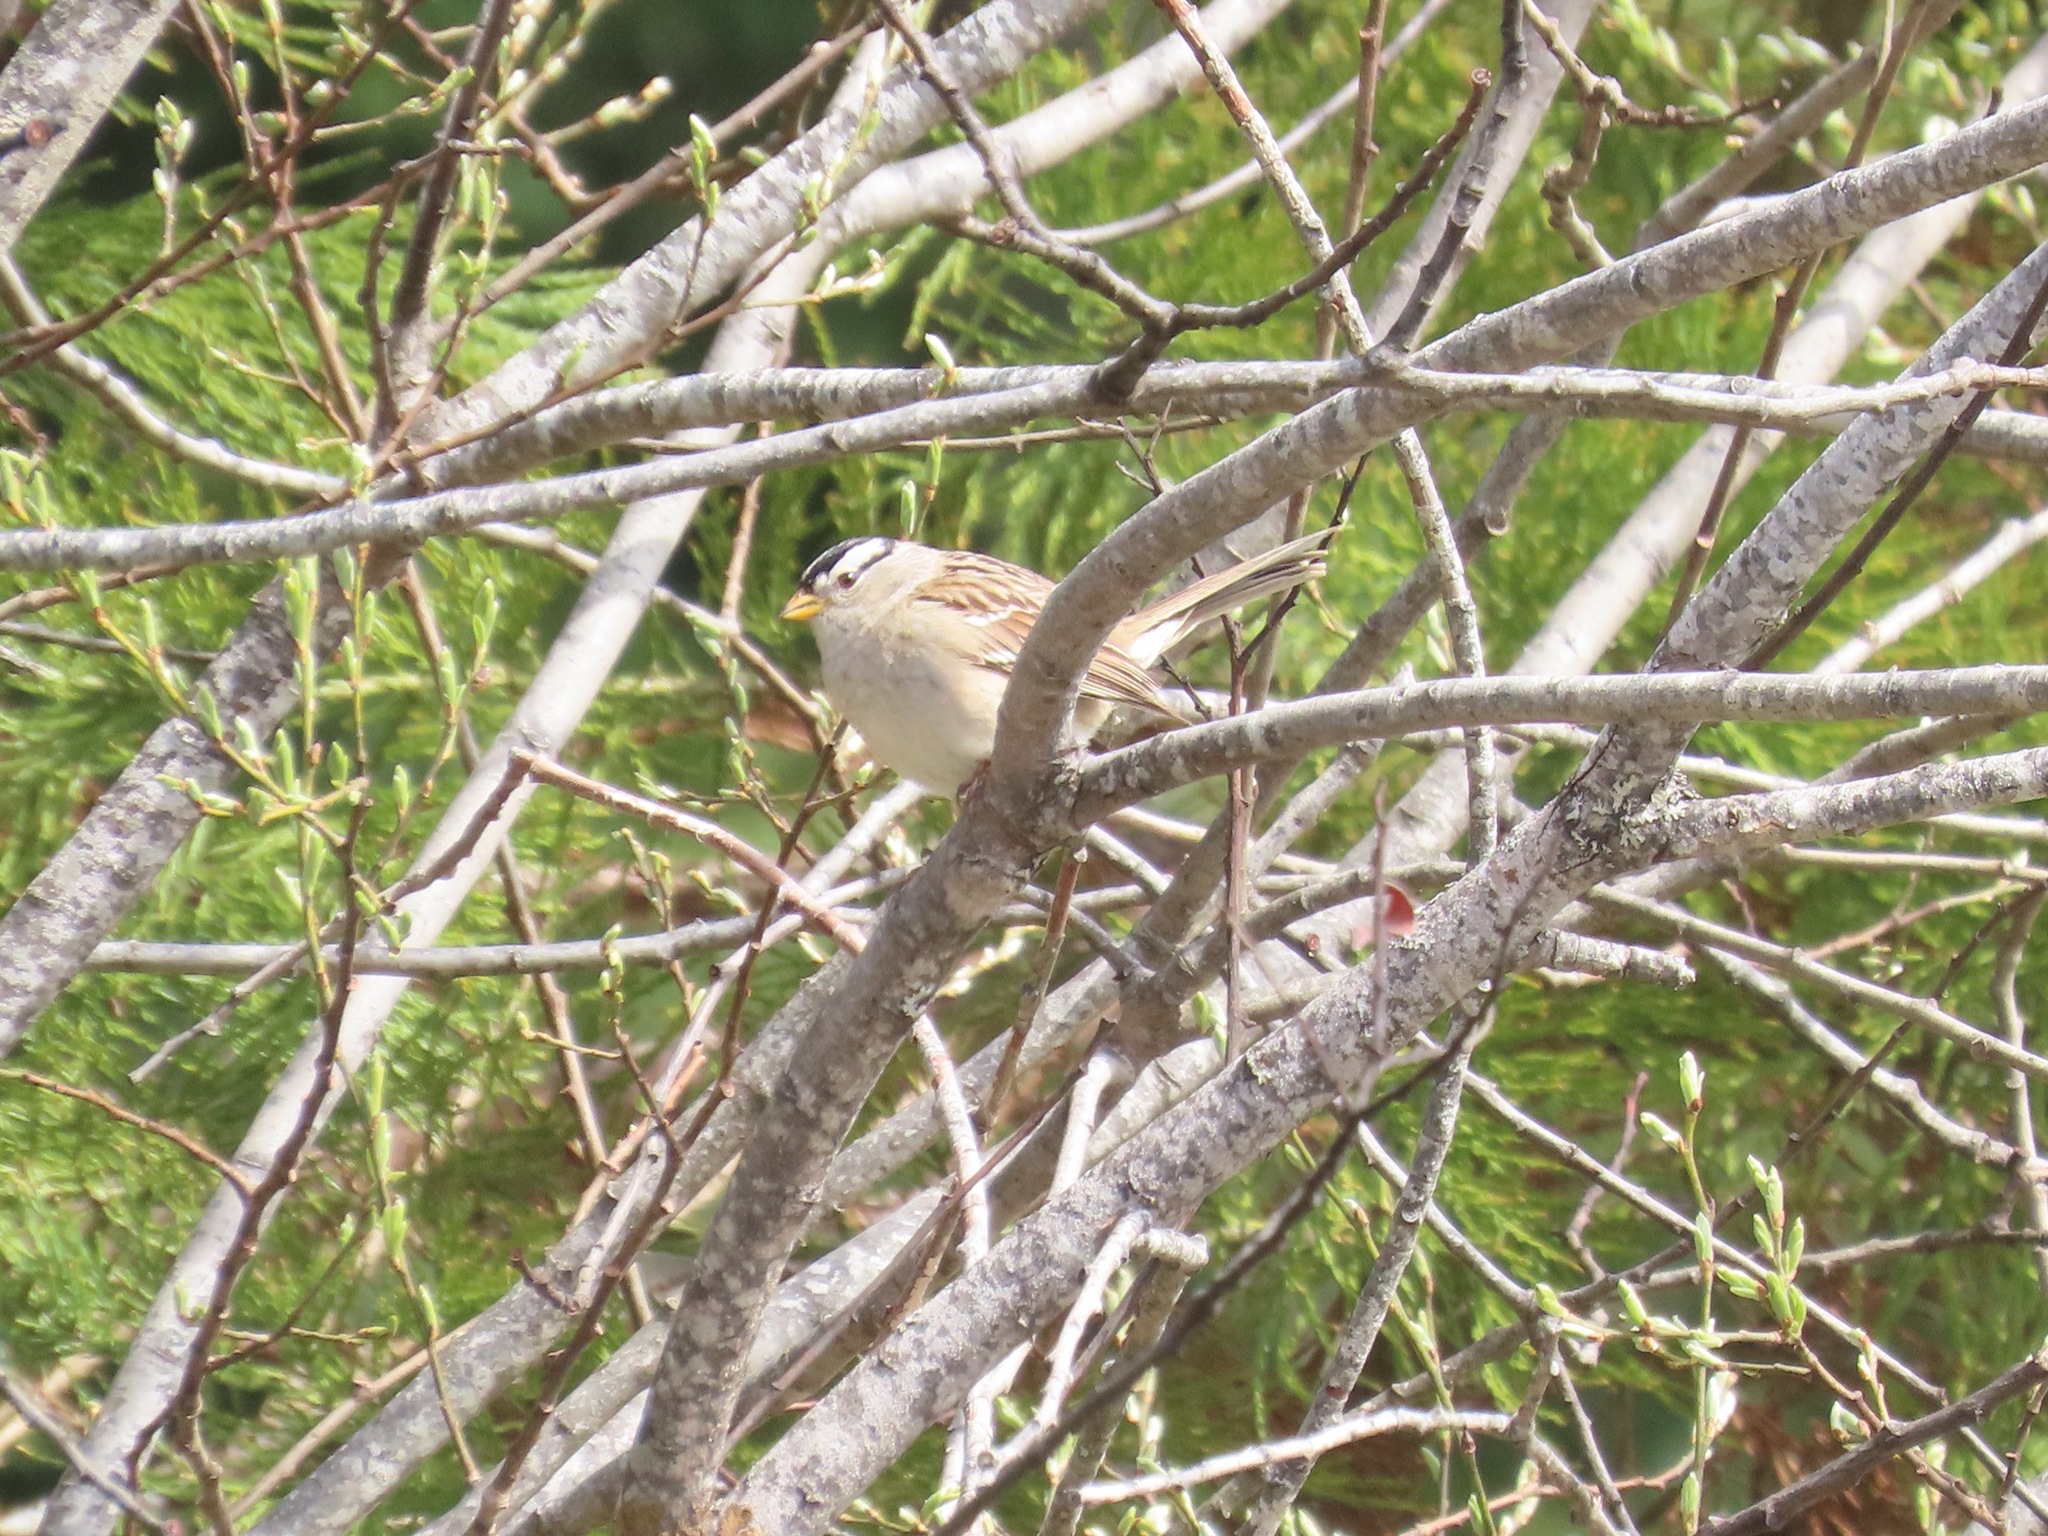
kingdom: Animalia
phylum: Chordata
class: Aves
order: Passeriformes
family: Passerellidae
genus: Zonotrichia
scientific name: Zonotrichia leucophrys
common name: White-crowned sparrow
